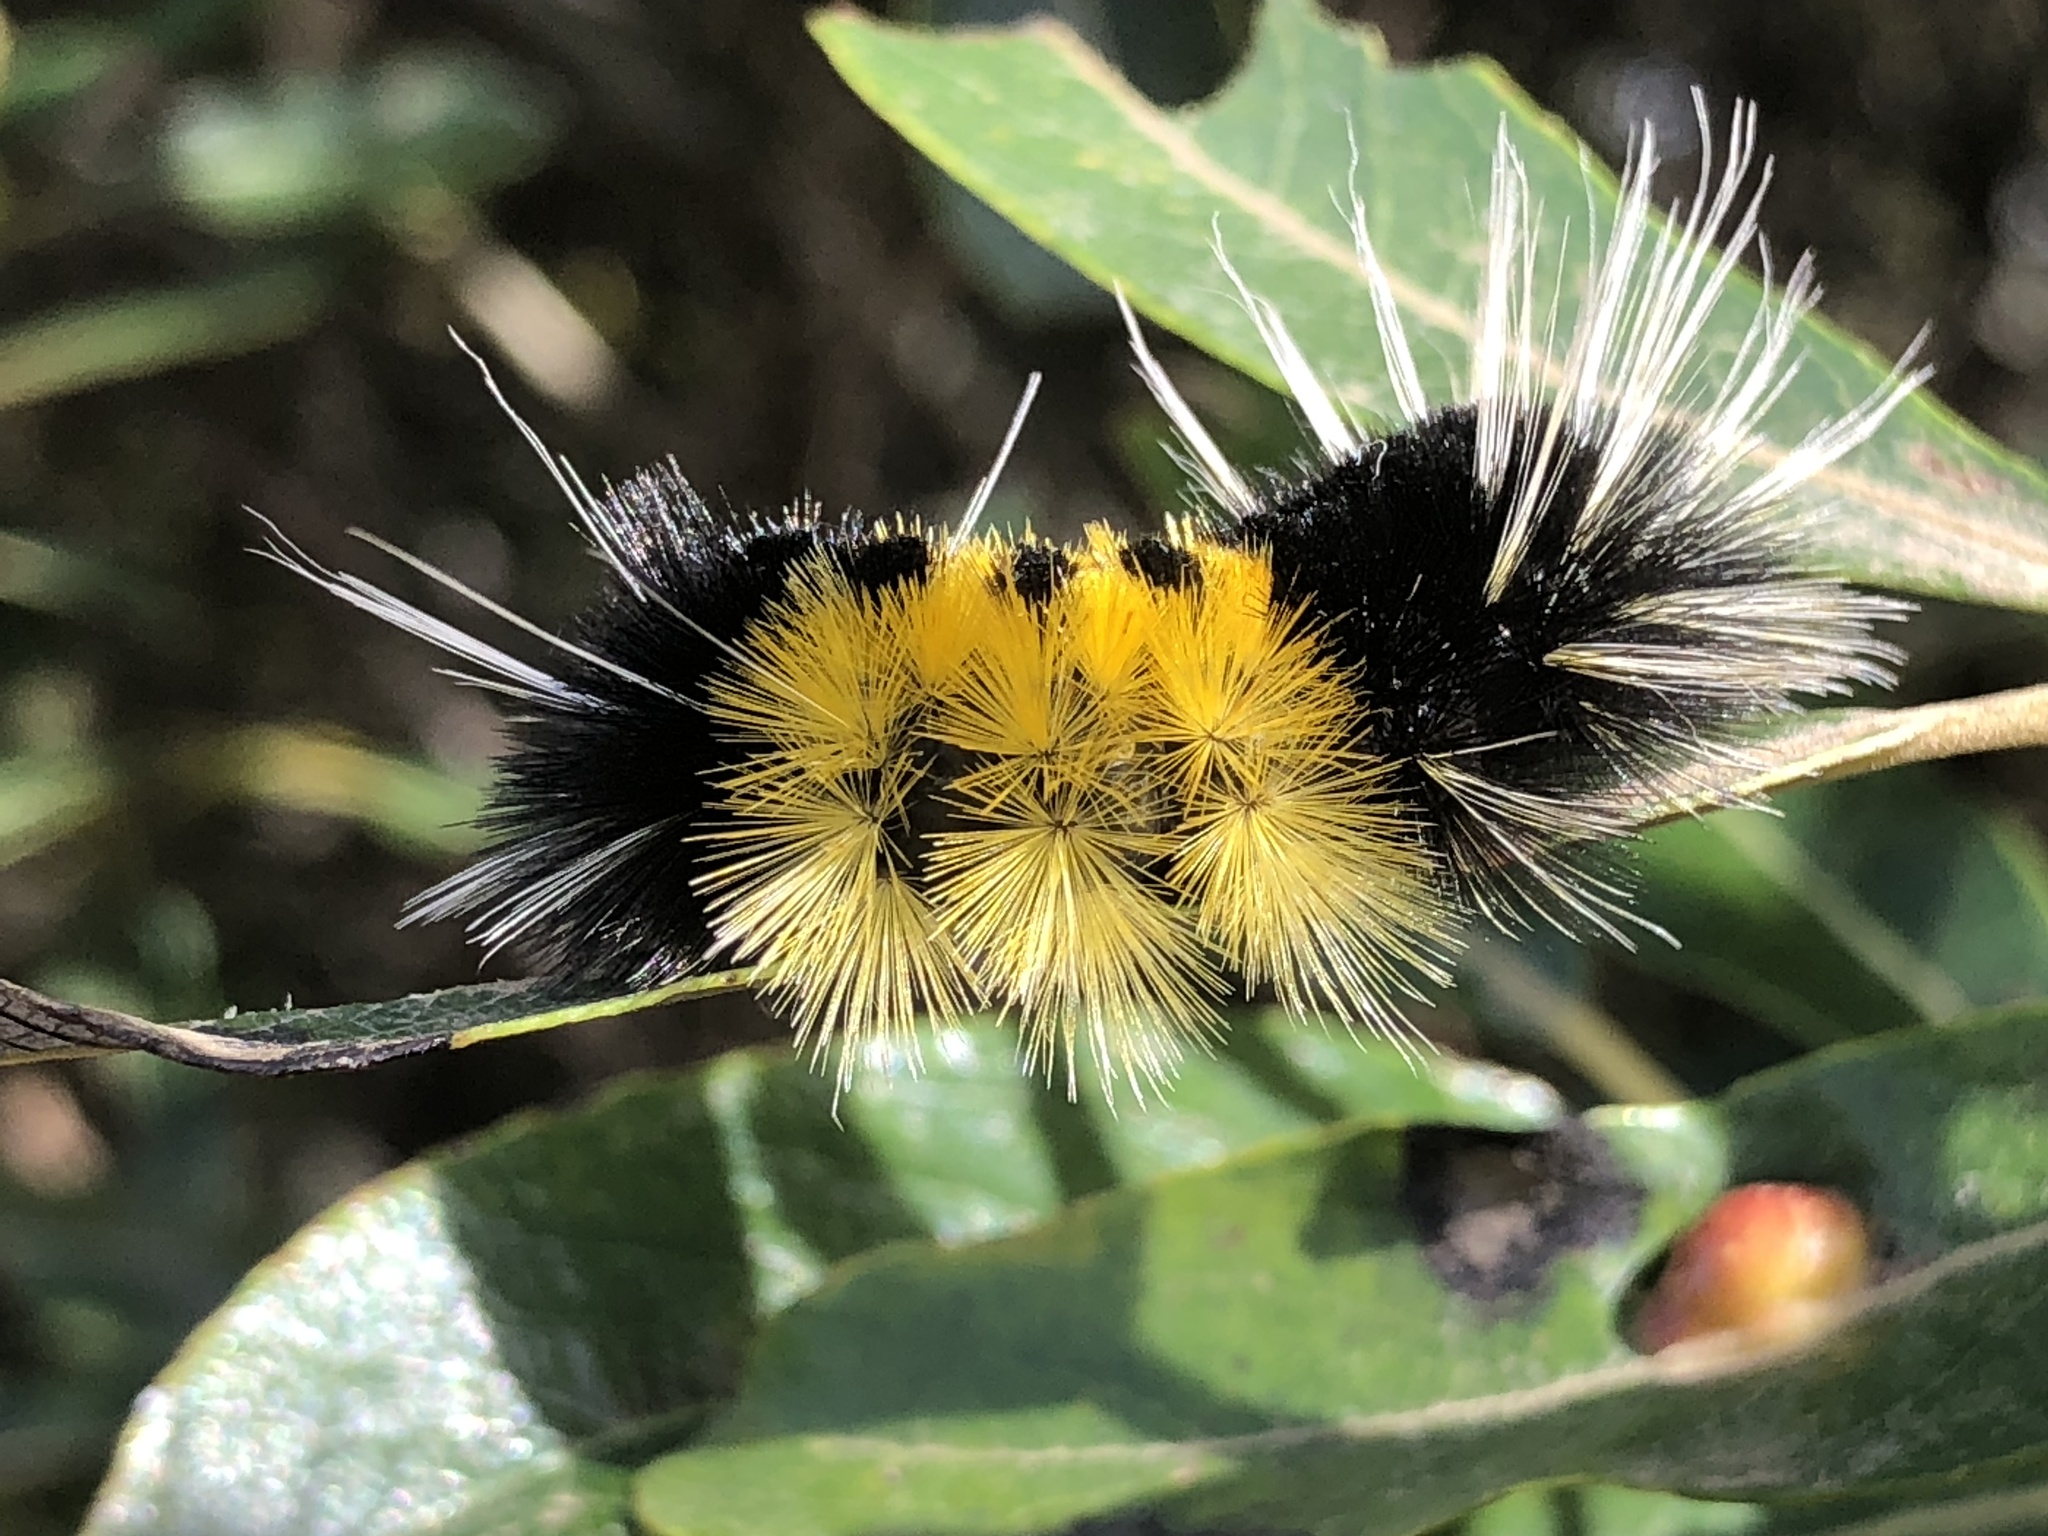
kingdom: Animalia
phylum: Arthropoda
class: Insecta
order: Lepidoptera
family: Erebidae
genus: Lophocampa
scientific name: Lophocampa maculata
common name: Spotted tussock moth
